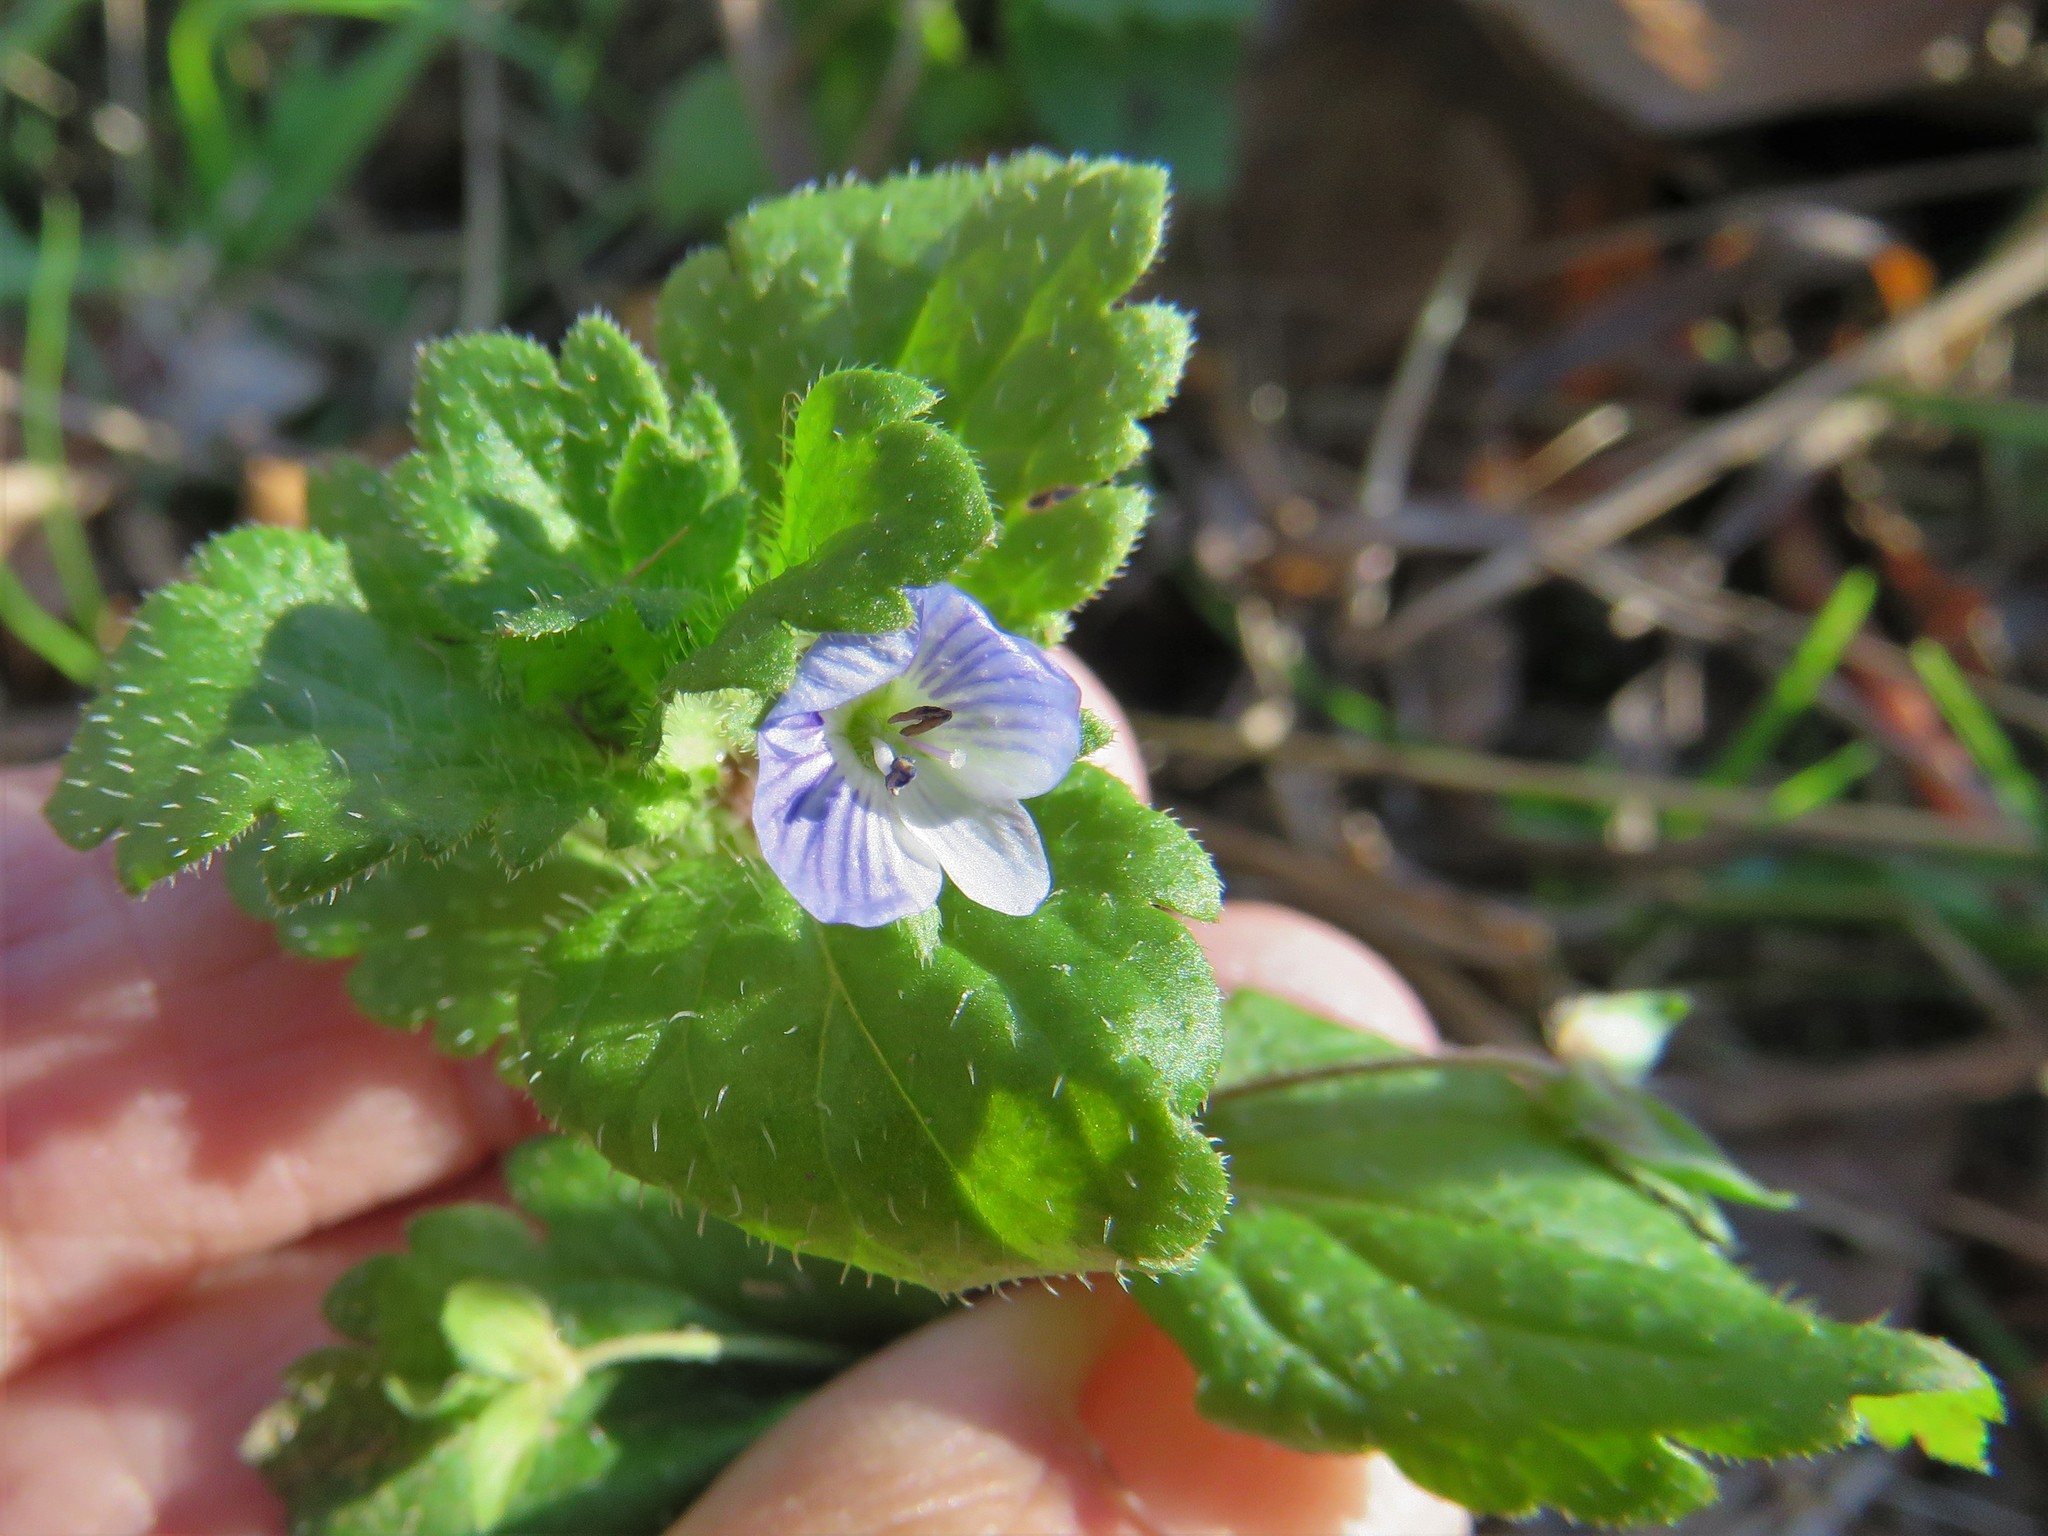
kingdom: Plantae
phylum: Tracheophyta
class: Magnoliopsida
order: Lamiales
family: Plantaginaceae
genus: Veronica
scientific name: Veronica persica
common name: Common field-speedwell
